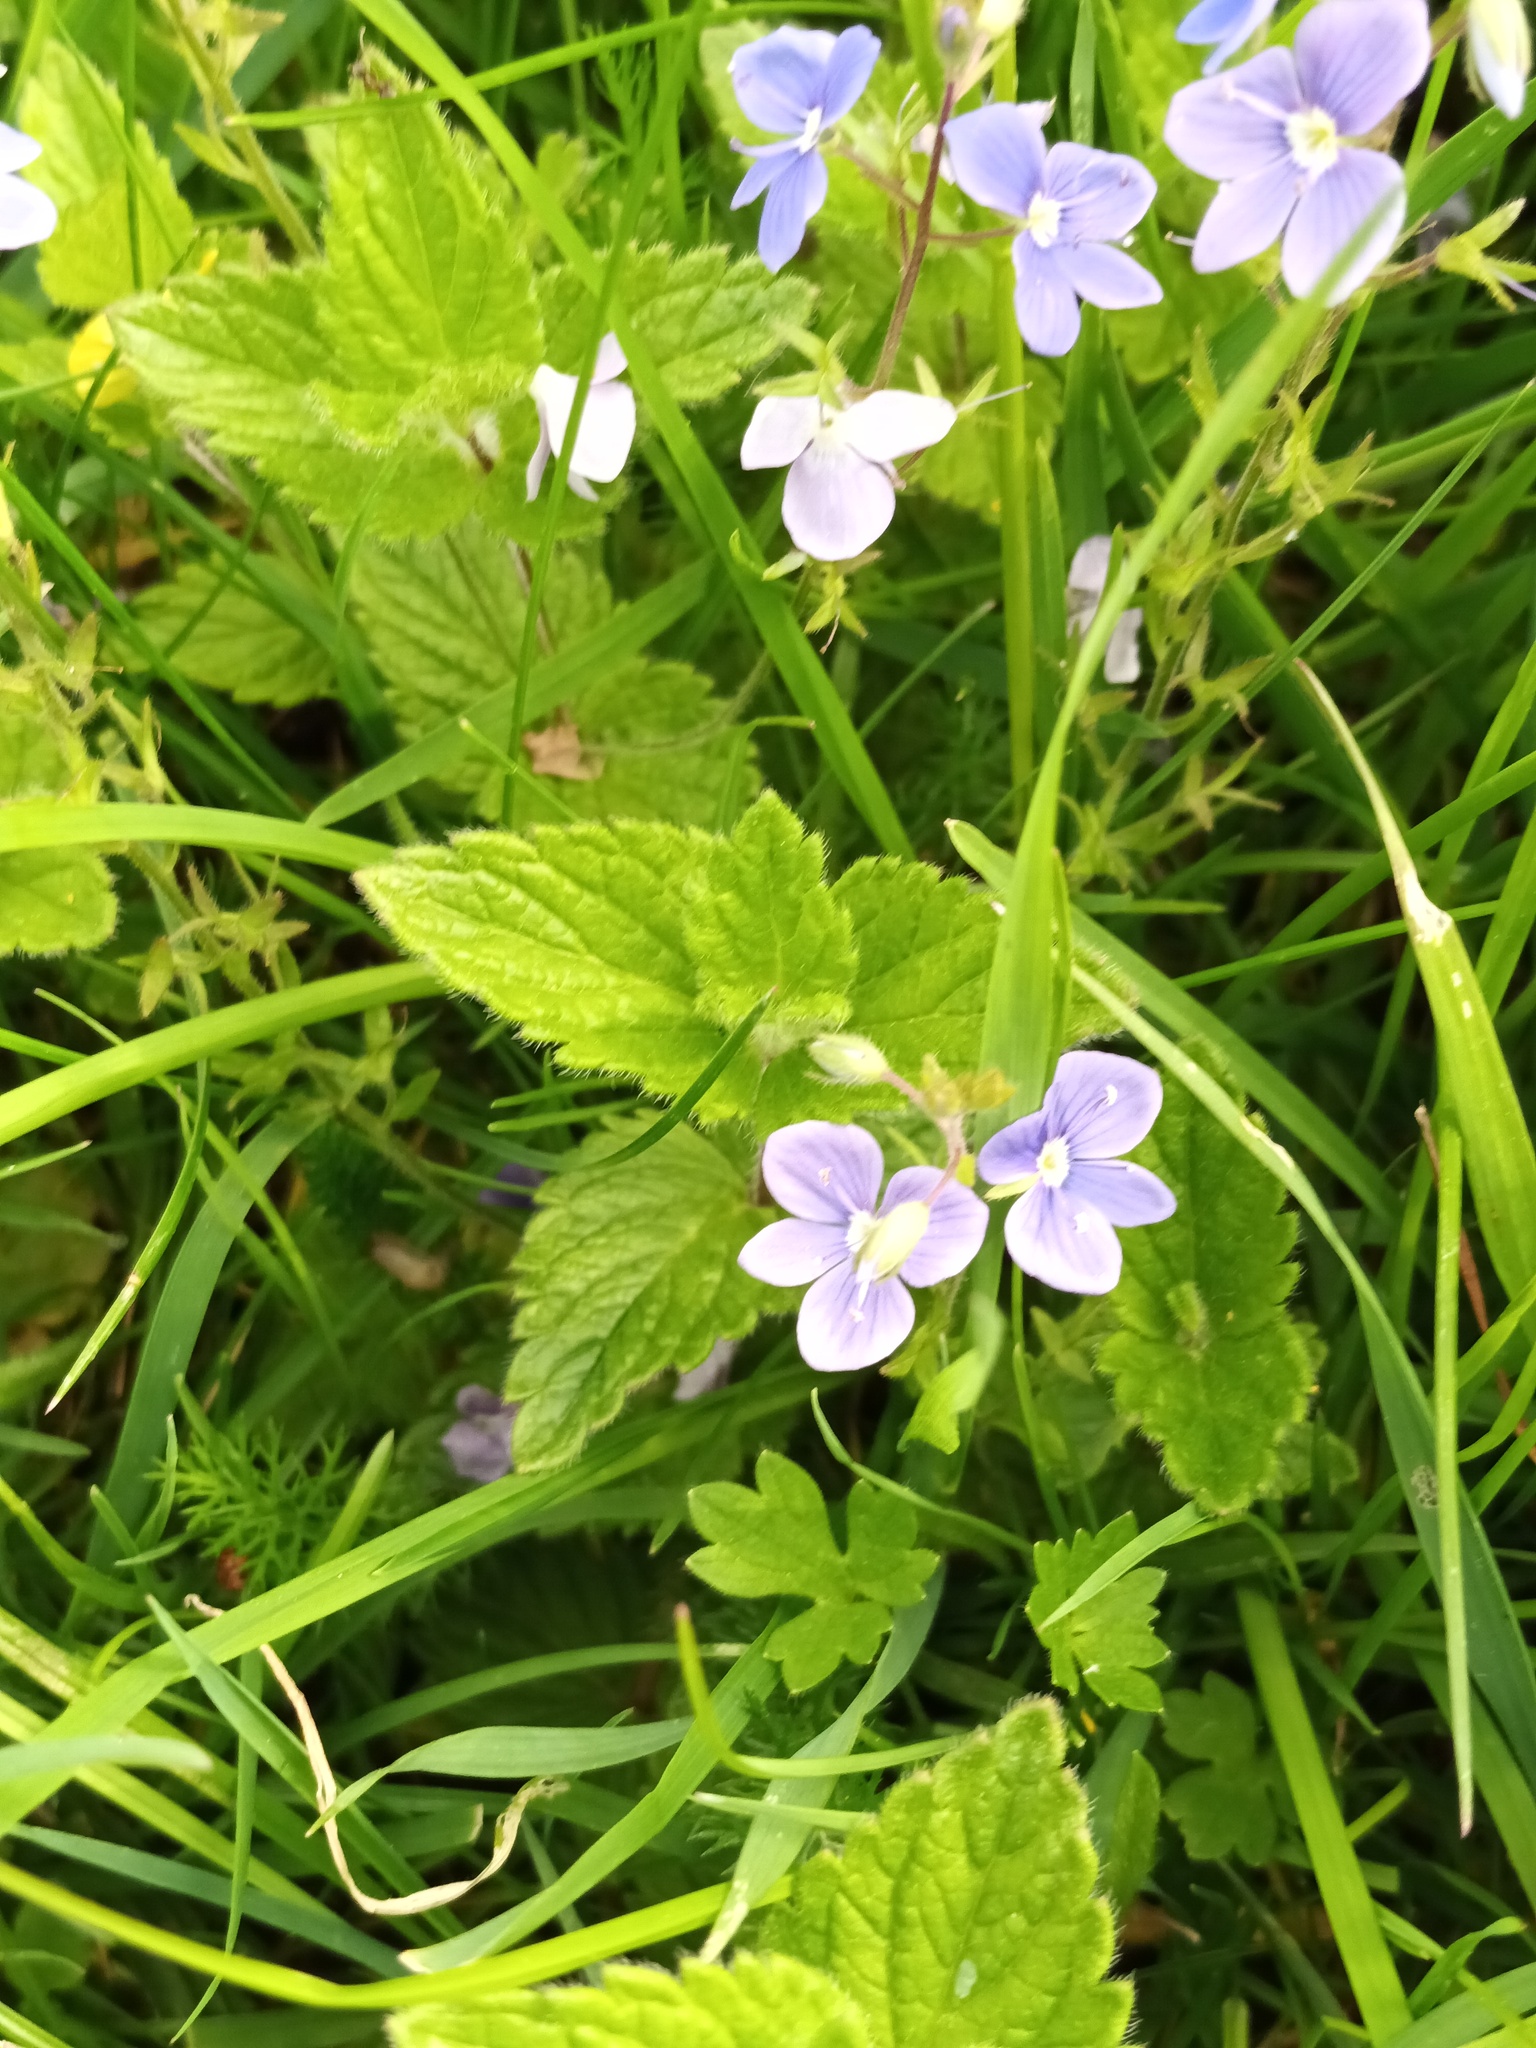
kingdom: Plantae
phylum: Tracheophyta
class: Magnoliopsida
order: Lamiales
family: Plantaginaceae
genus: Veronica
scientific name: Veronica chamaedrys
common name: Germander speedwell
